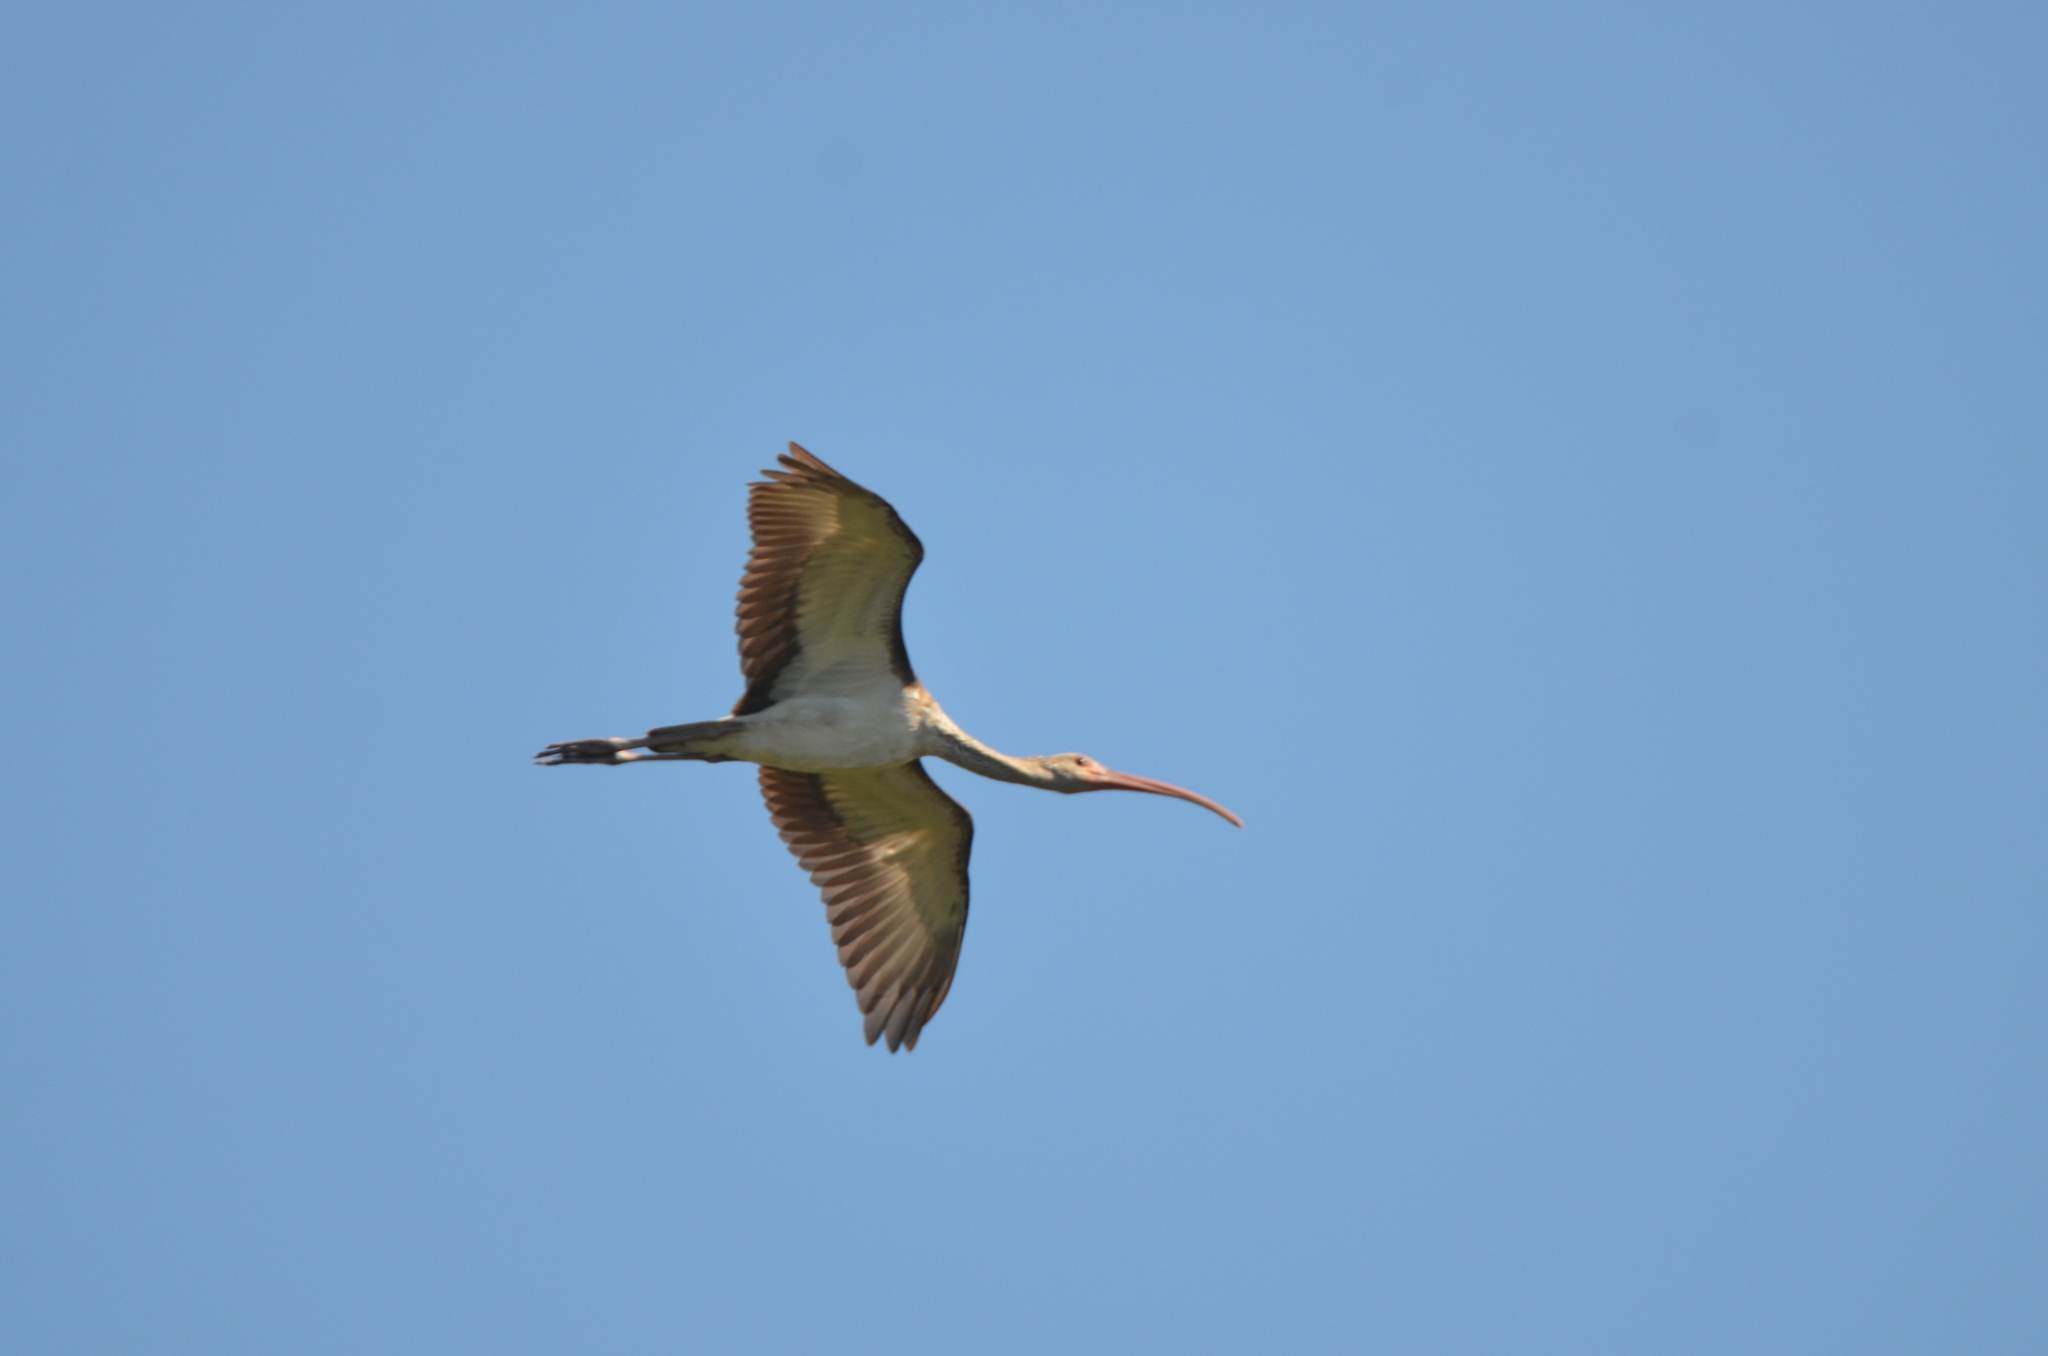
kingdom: Animalia
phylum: Chordata
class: Aves
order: Pelecaniformes
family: Threskiornithidae
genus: Eudocimus
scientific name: Eudocimus albus
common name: White ibis
